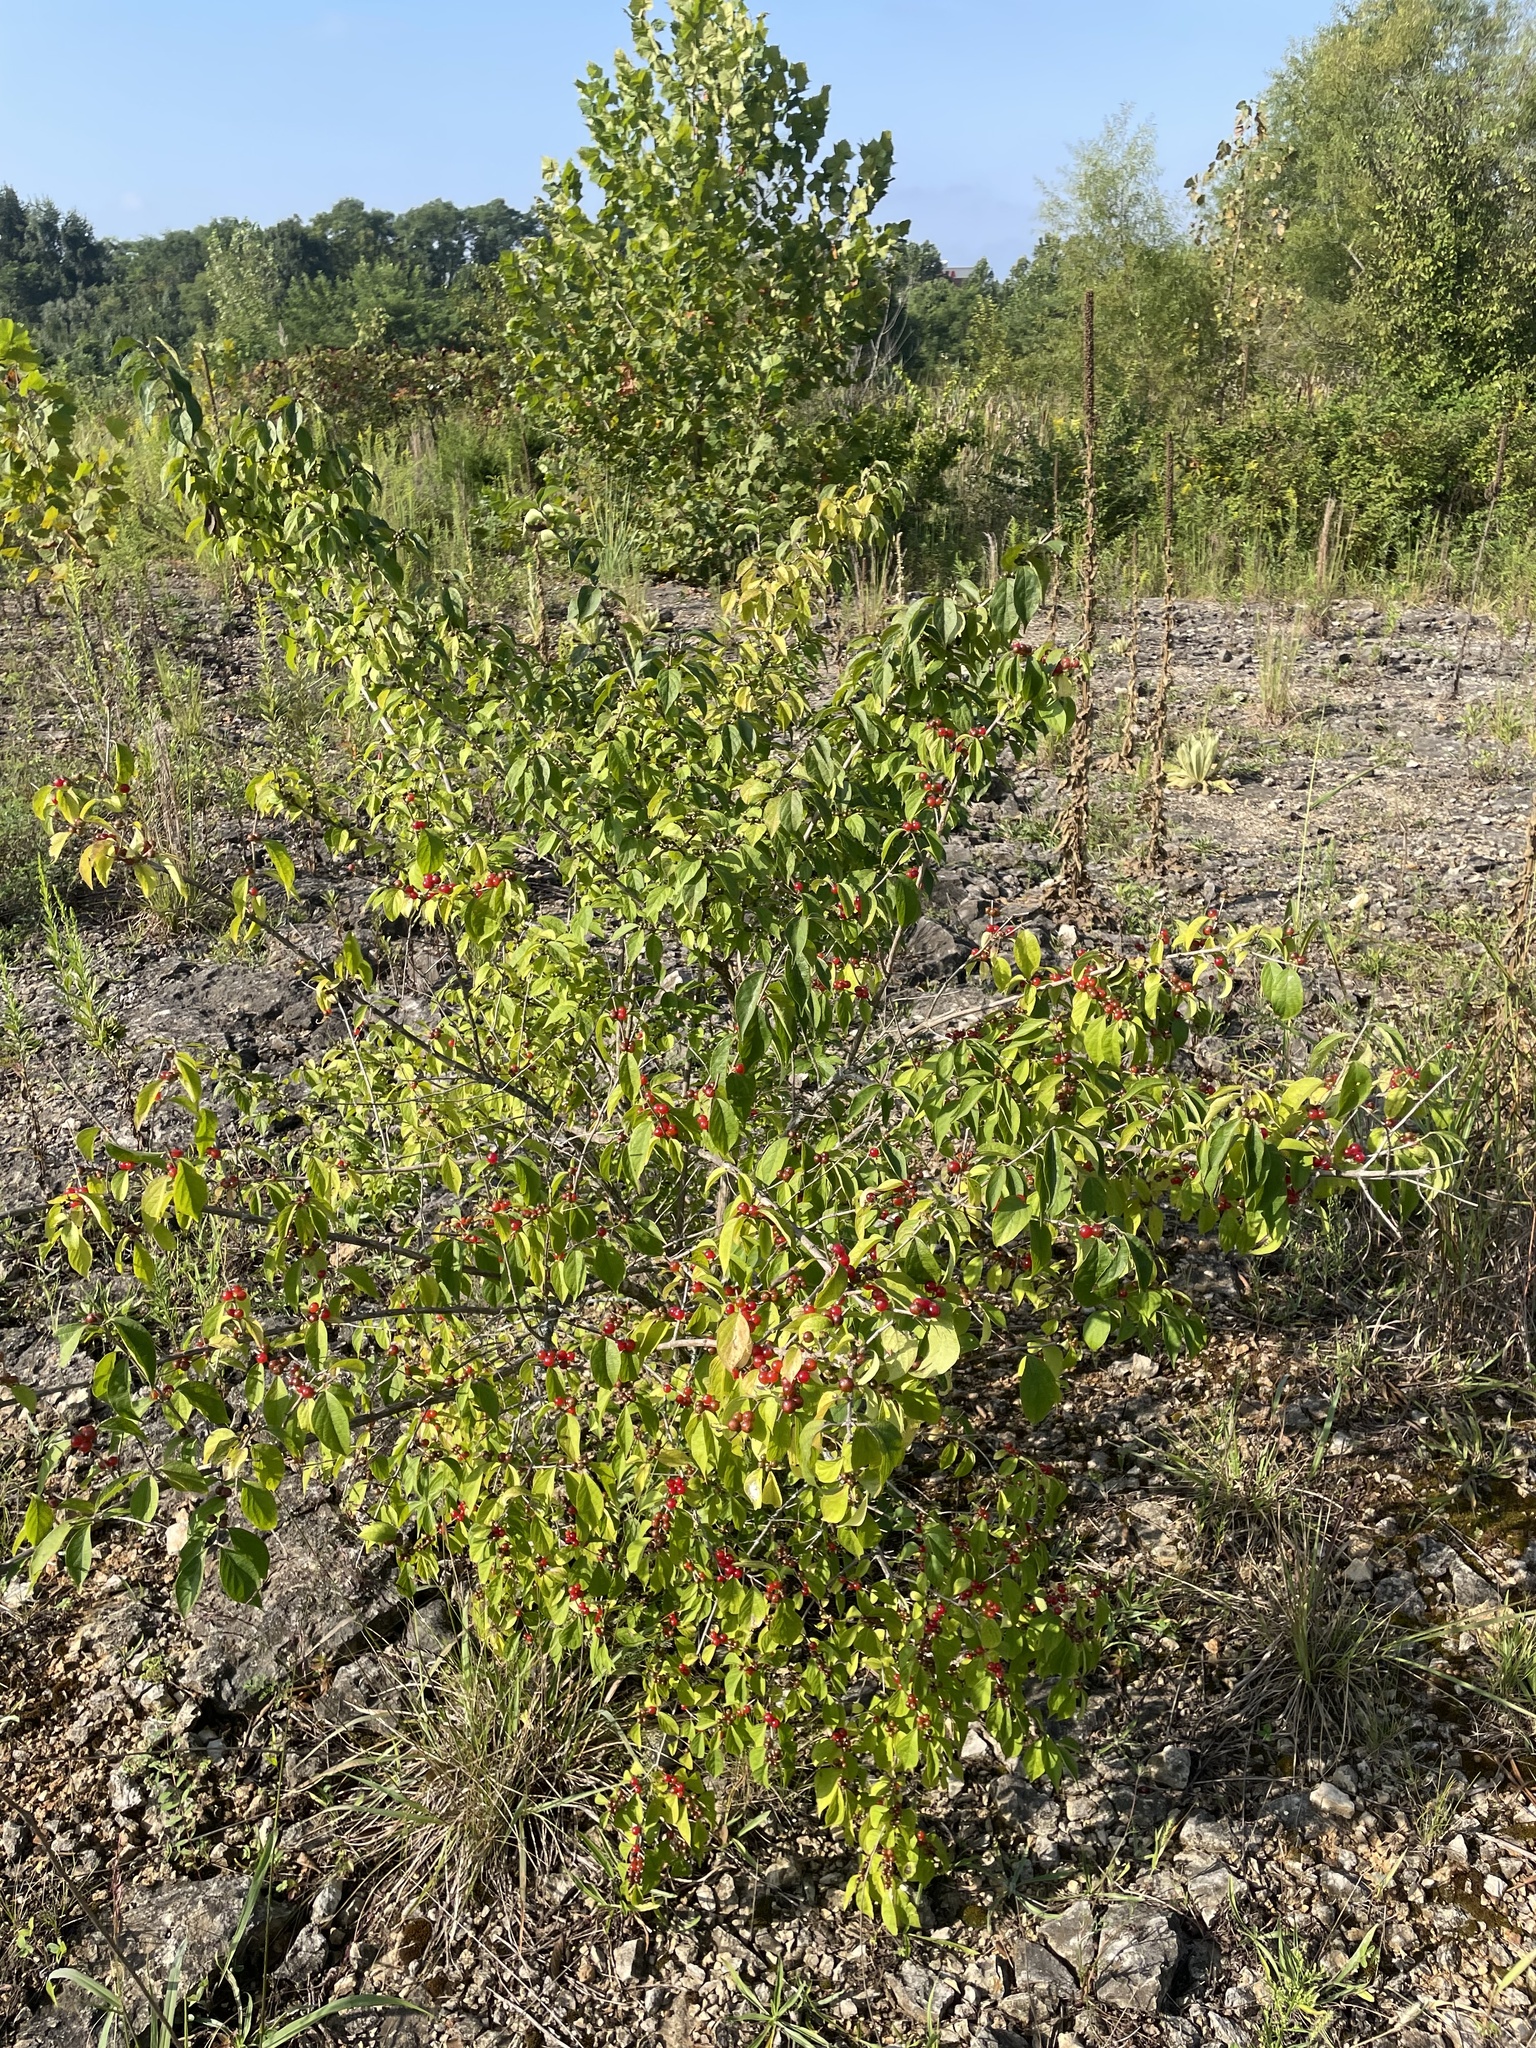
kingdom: Plantae
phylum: Tracheophyta
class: Magnoliopsida
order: Dipsacales
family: Caprifoliaceae
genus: Lonicera
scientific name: Lonicera maackii
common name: Amur honeysuckle
